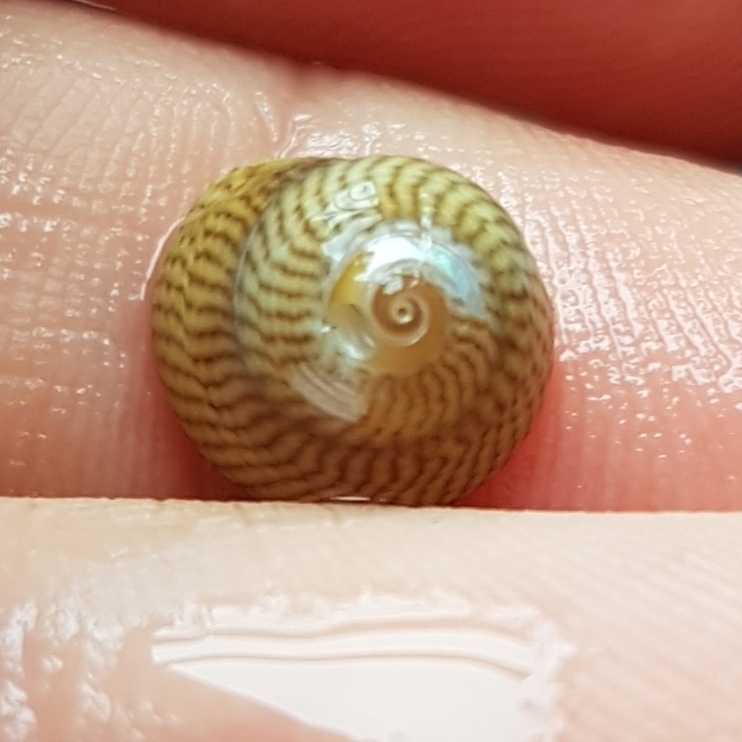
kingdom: Animalia
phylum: Mollusca
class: Gastropoda
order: Trochida
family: Trochidae
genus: Steromphala
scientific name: Steromphala cineraria
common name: Grey top shell
